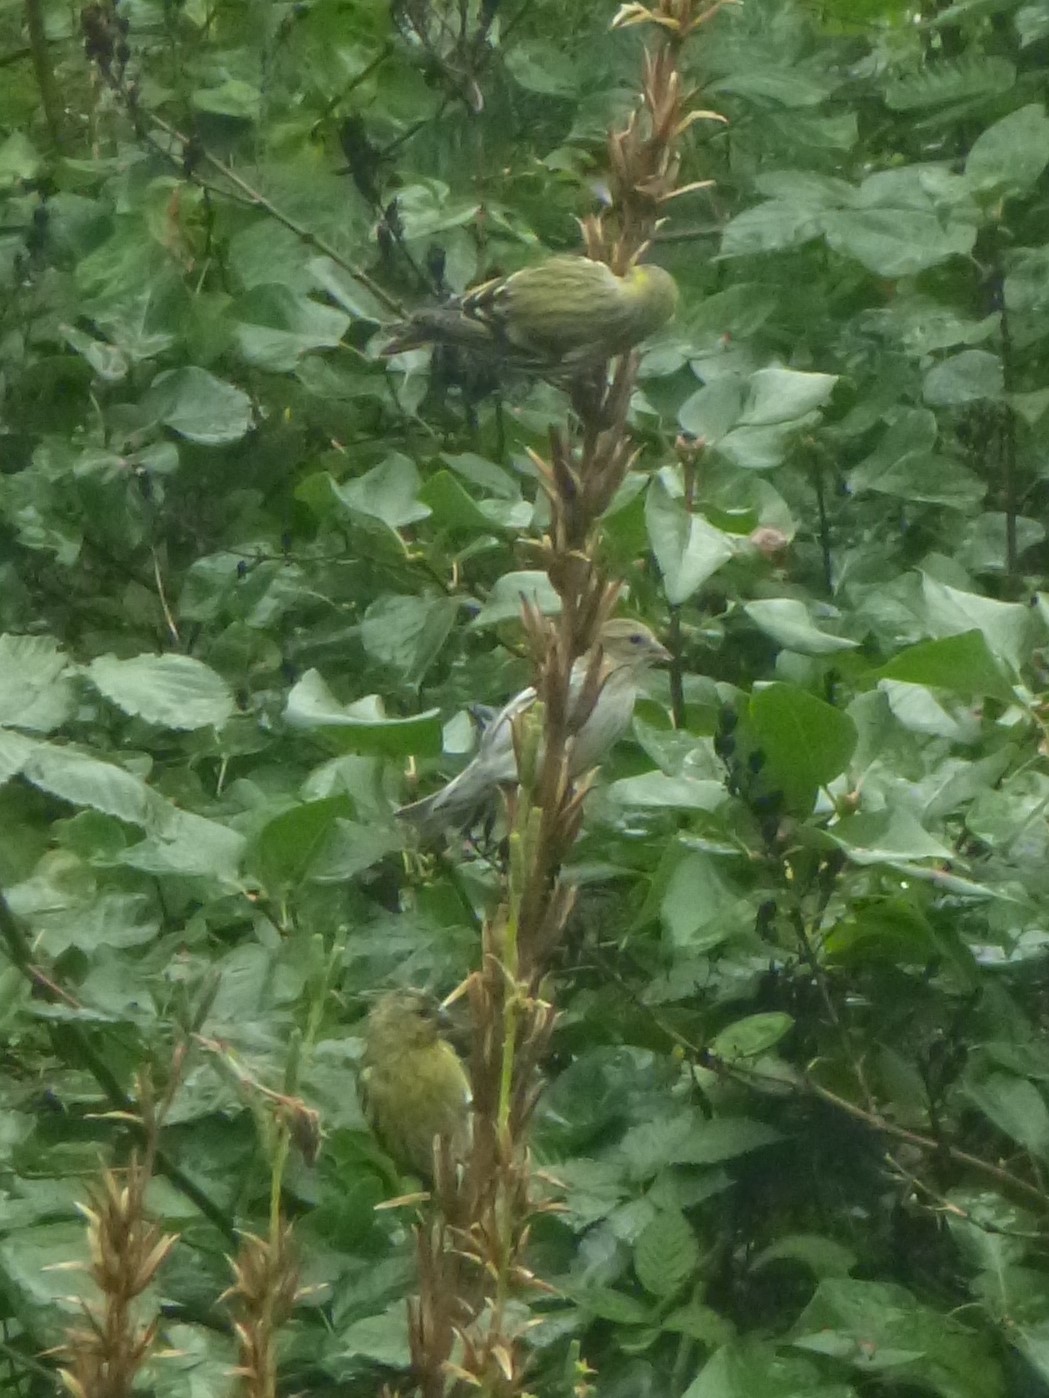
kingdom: Animalia
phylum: Chordata
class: Aves
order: Passeriformes
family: Fringillidae
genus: Spinus
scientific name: Spinus spinus
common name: Eurasian siskin
